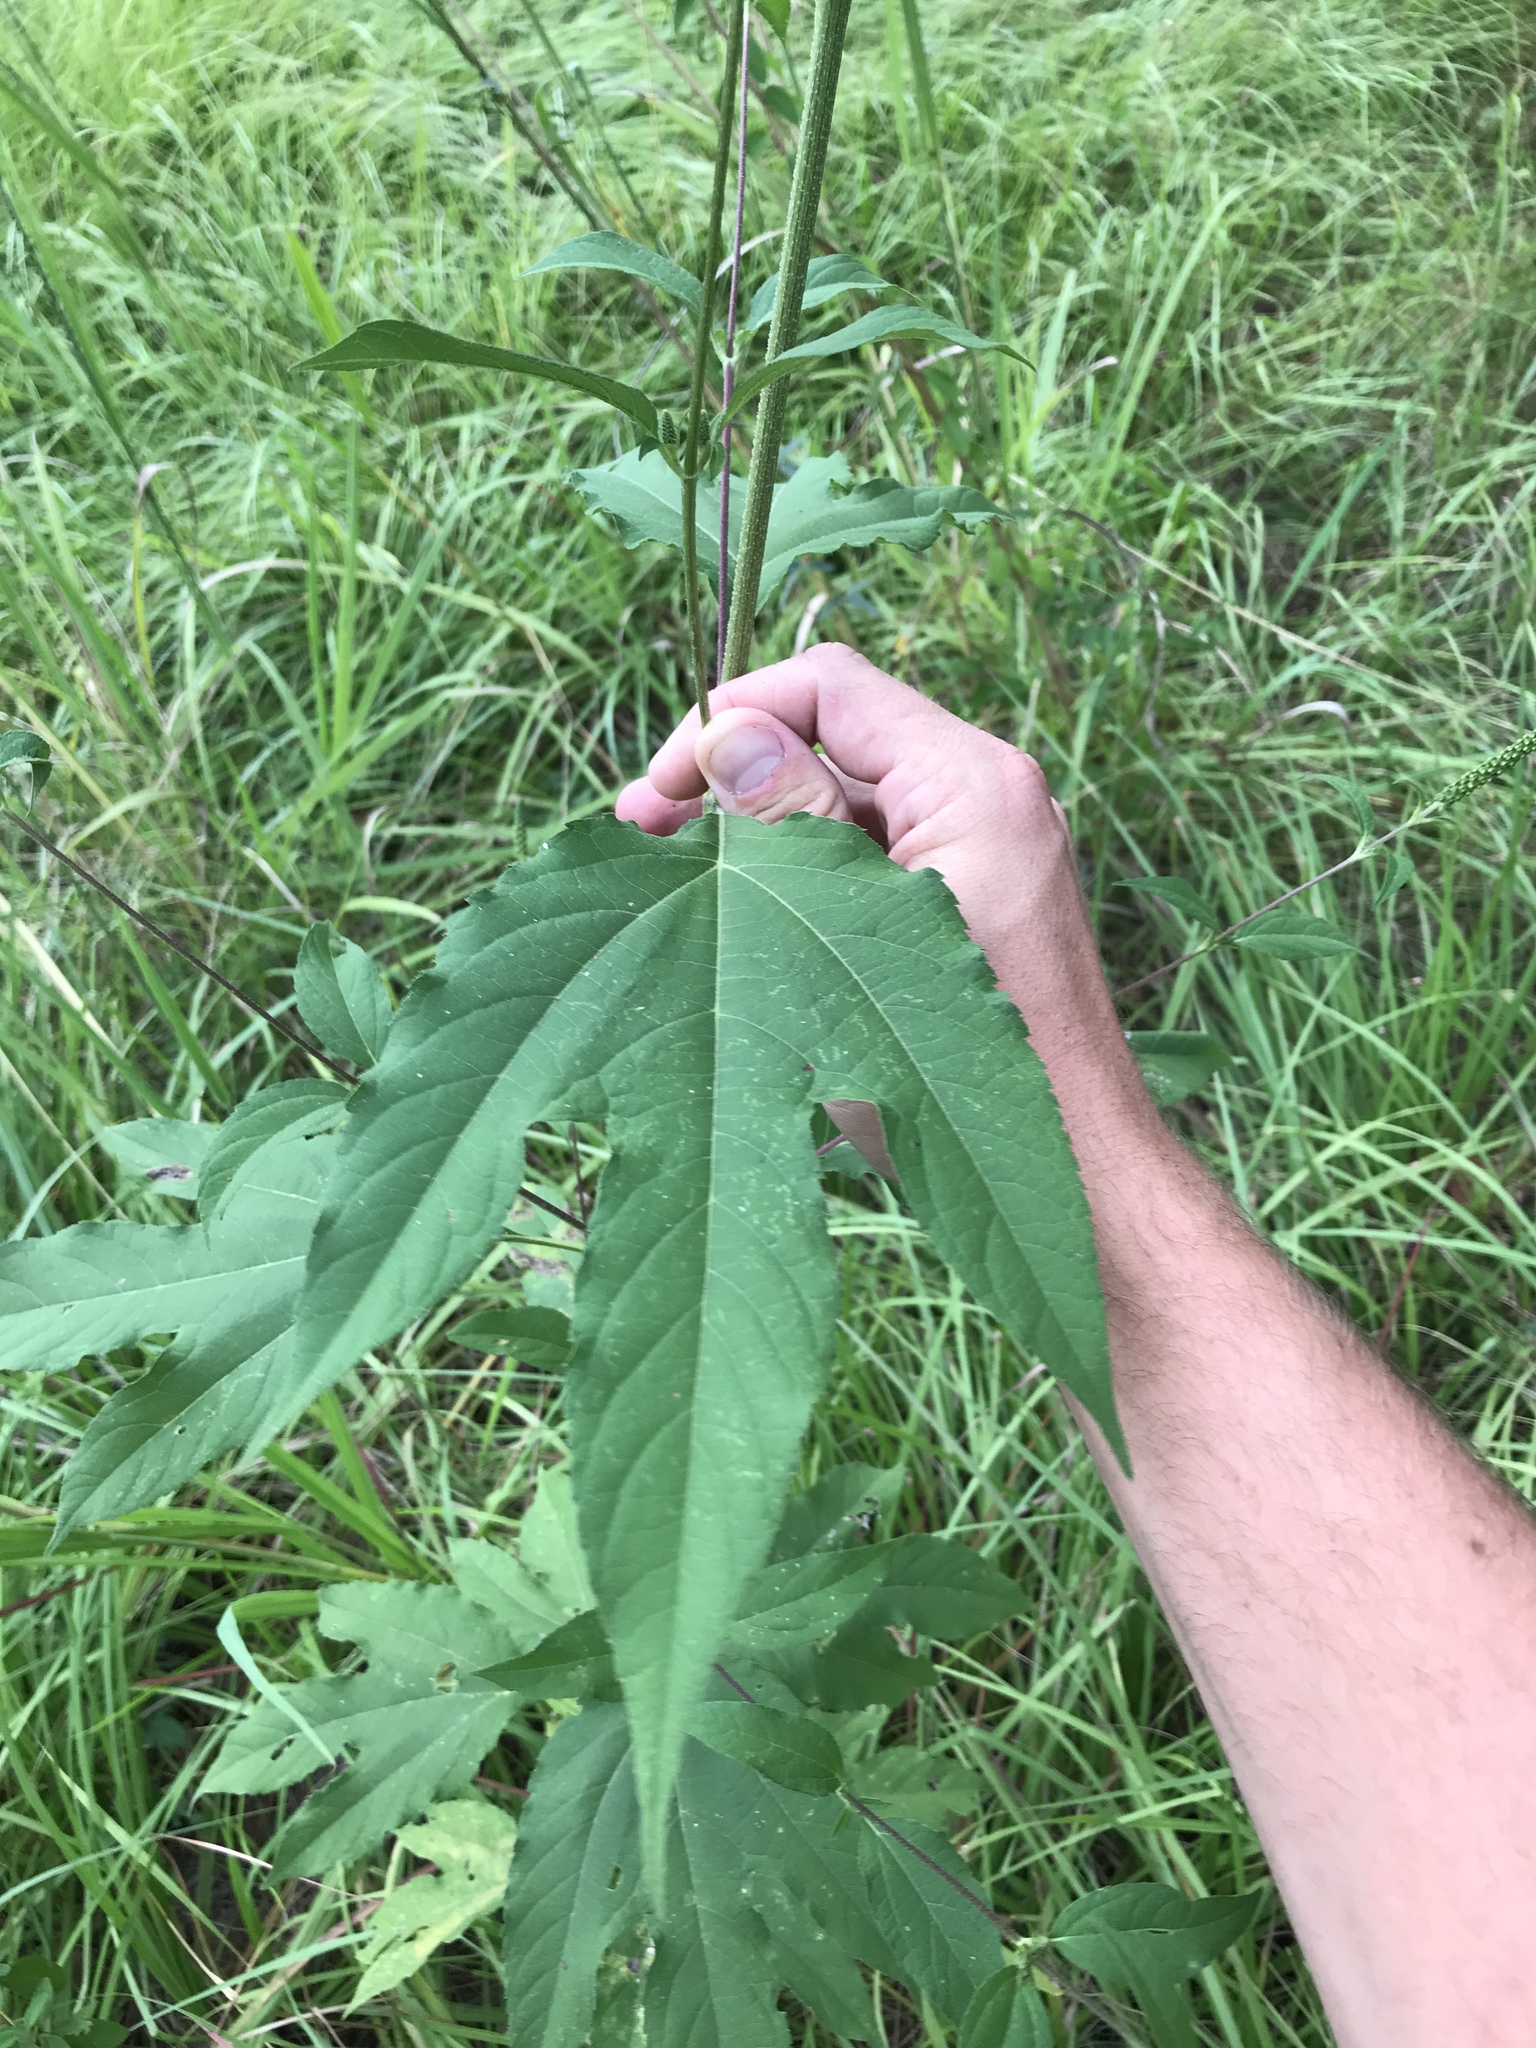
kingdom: Plantae
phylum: Tracheophyta
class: Magnoliopsida
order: Asterales
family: Asteraceae
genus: Ambrosia
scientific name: Ambrosia trifida
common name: Giant ragweed
